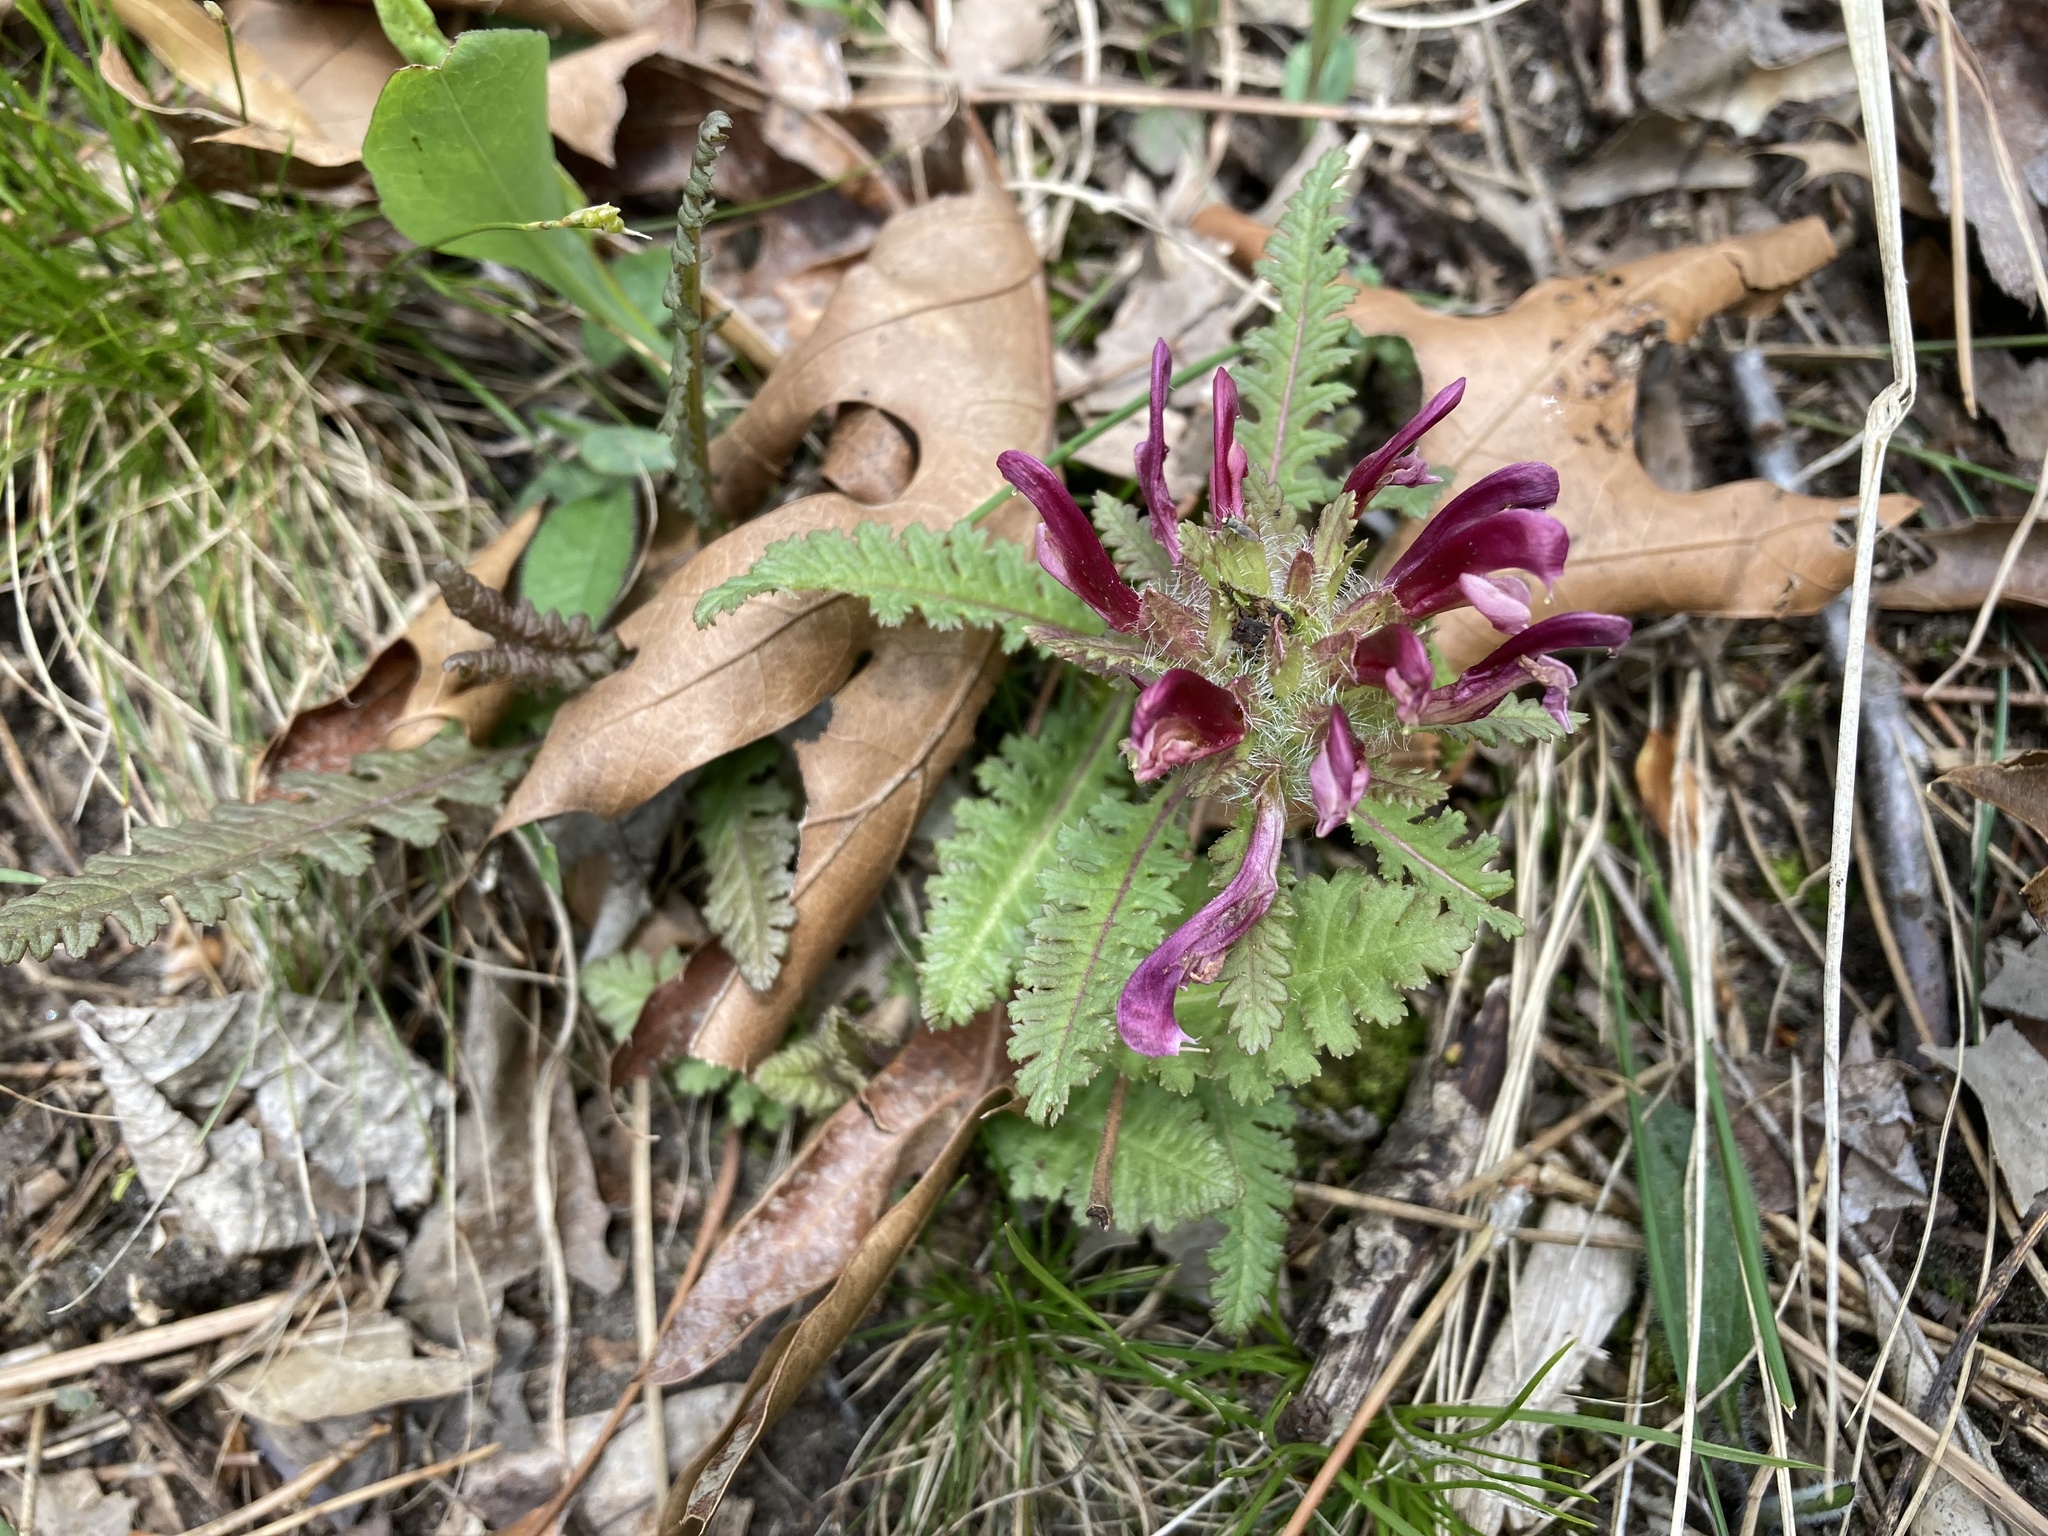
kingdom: Plantae
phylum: Tracheophyta
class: Magnoliopsida
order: Lamiales
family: Orobanchaceae
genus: Pedicularis
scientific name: Pedicularis canadensis
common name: Early lousewort
